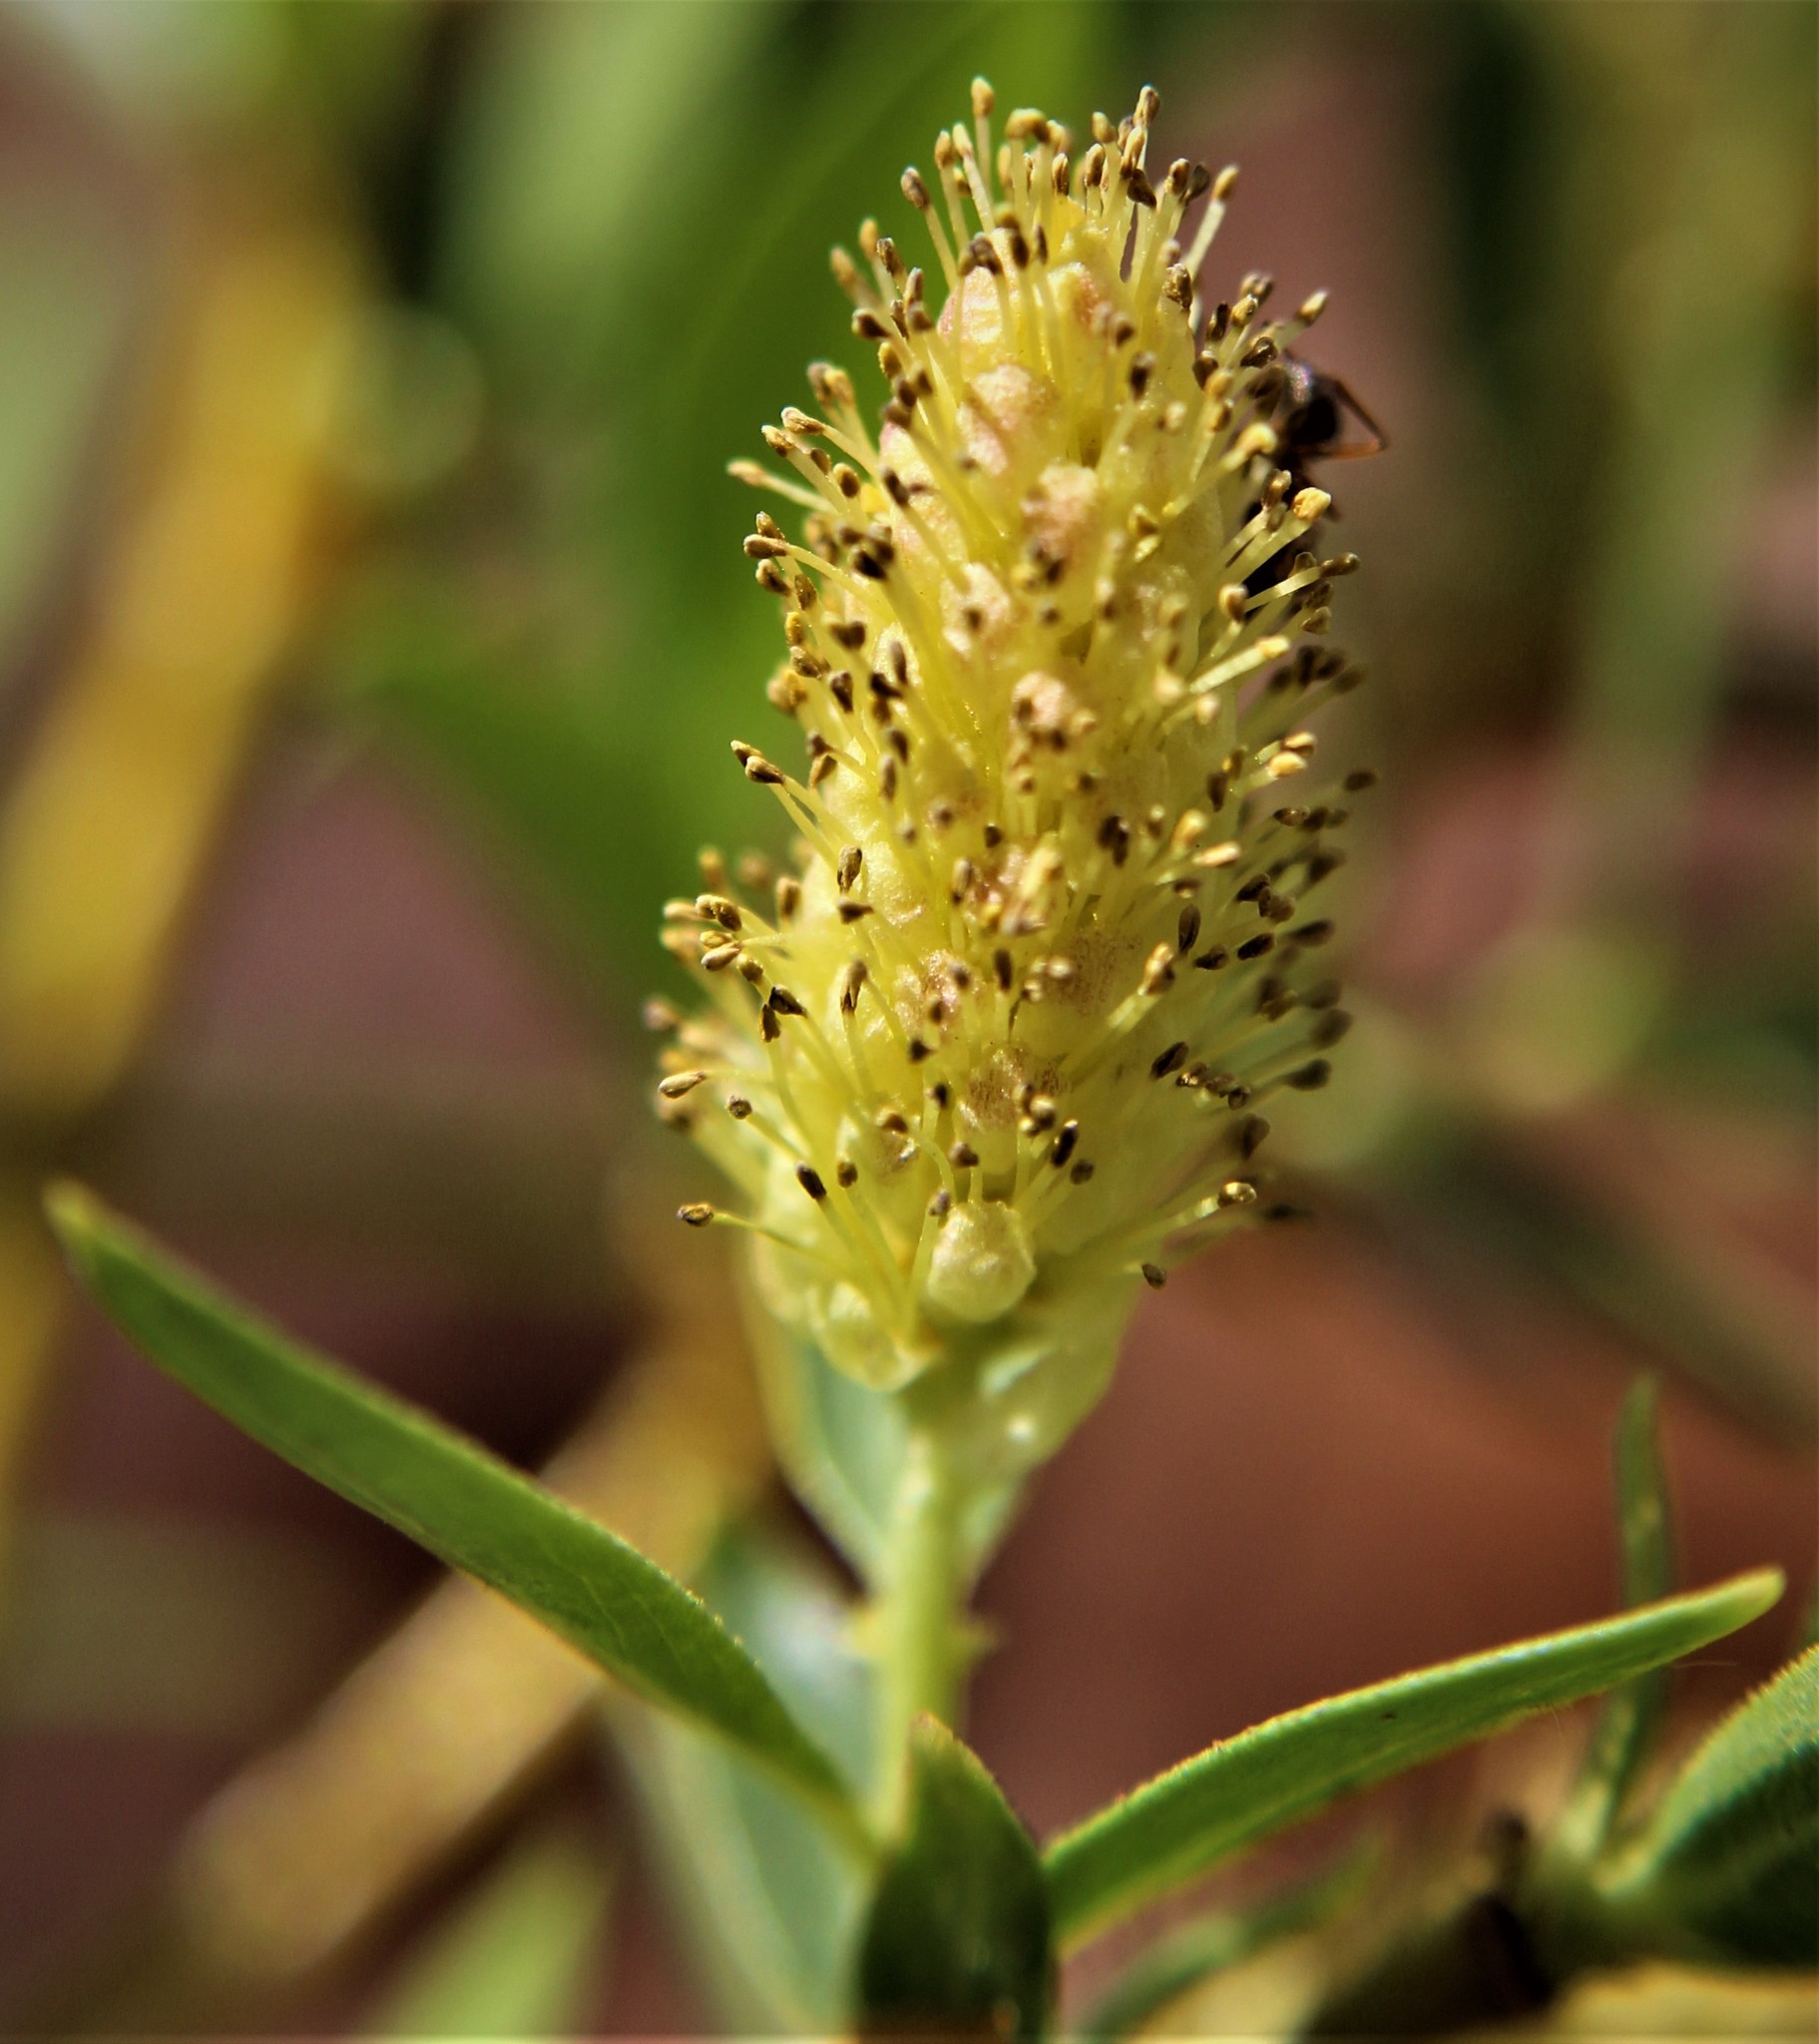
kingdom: Plantae
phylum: Tracheophyta
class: Magnoliopsida
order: Malpighiales
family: Salicaceae
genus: Salix
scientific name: Salix
